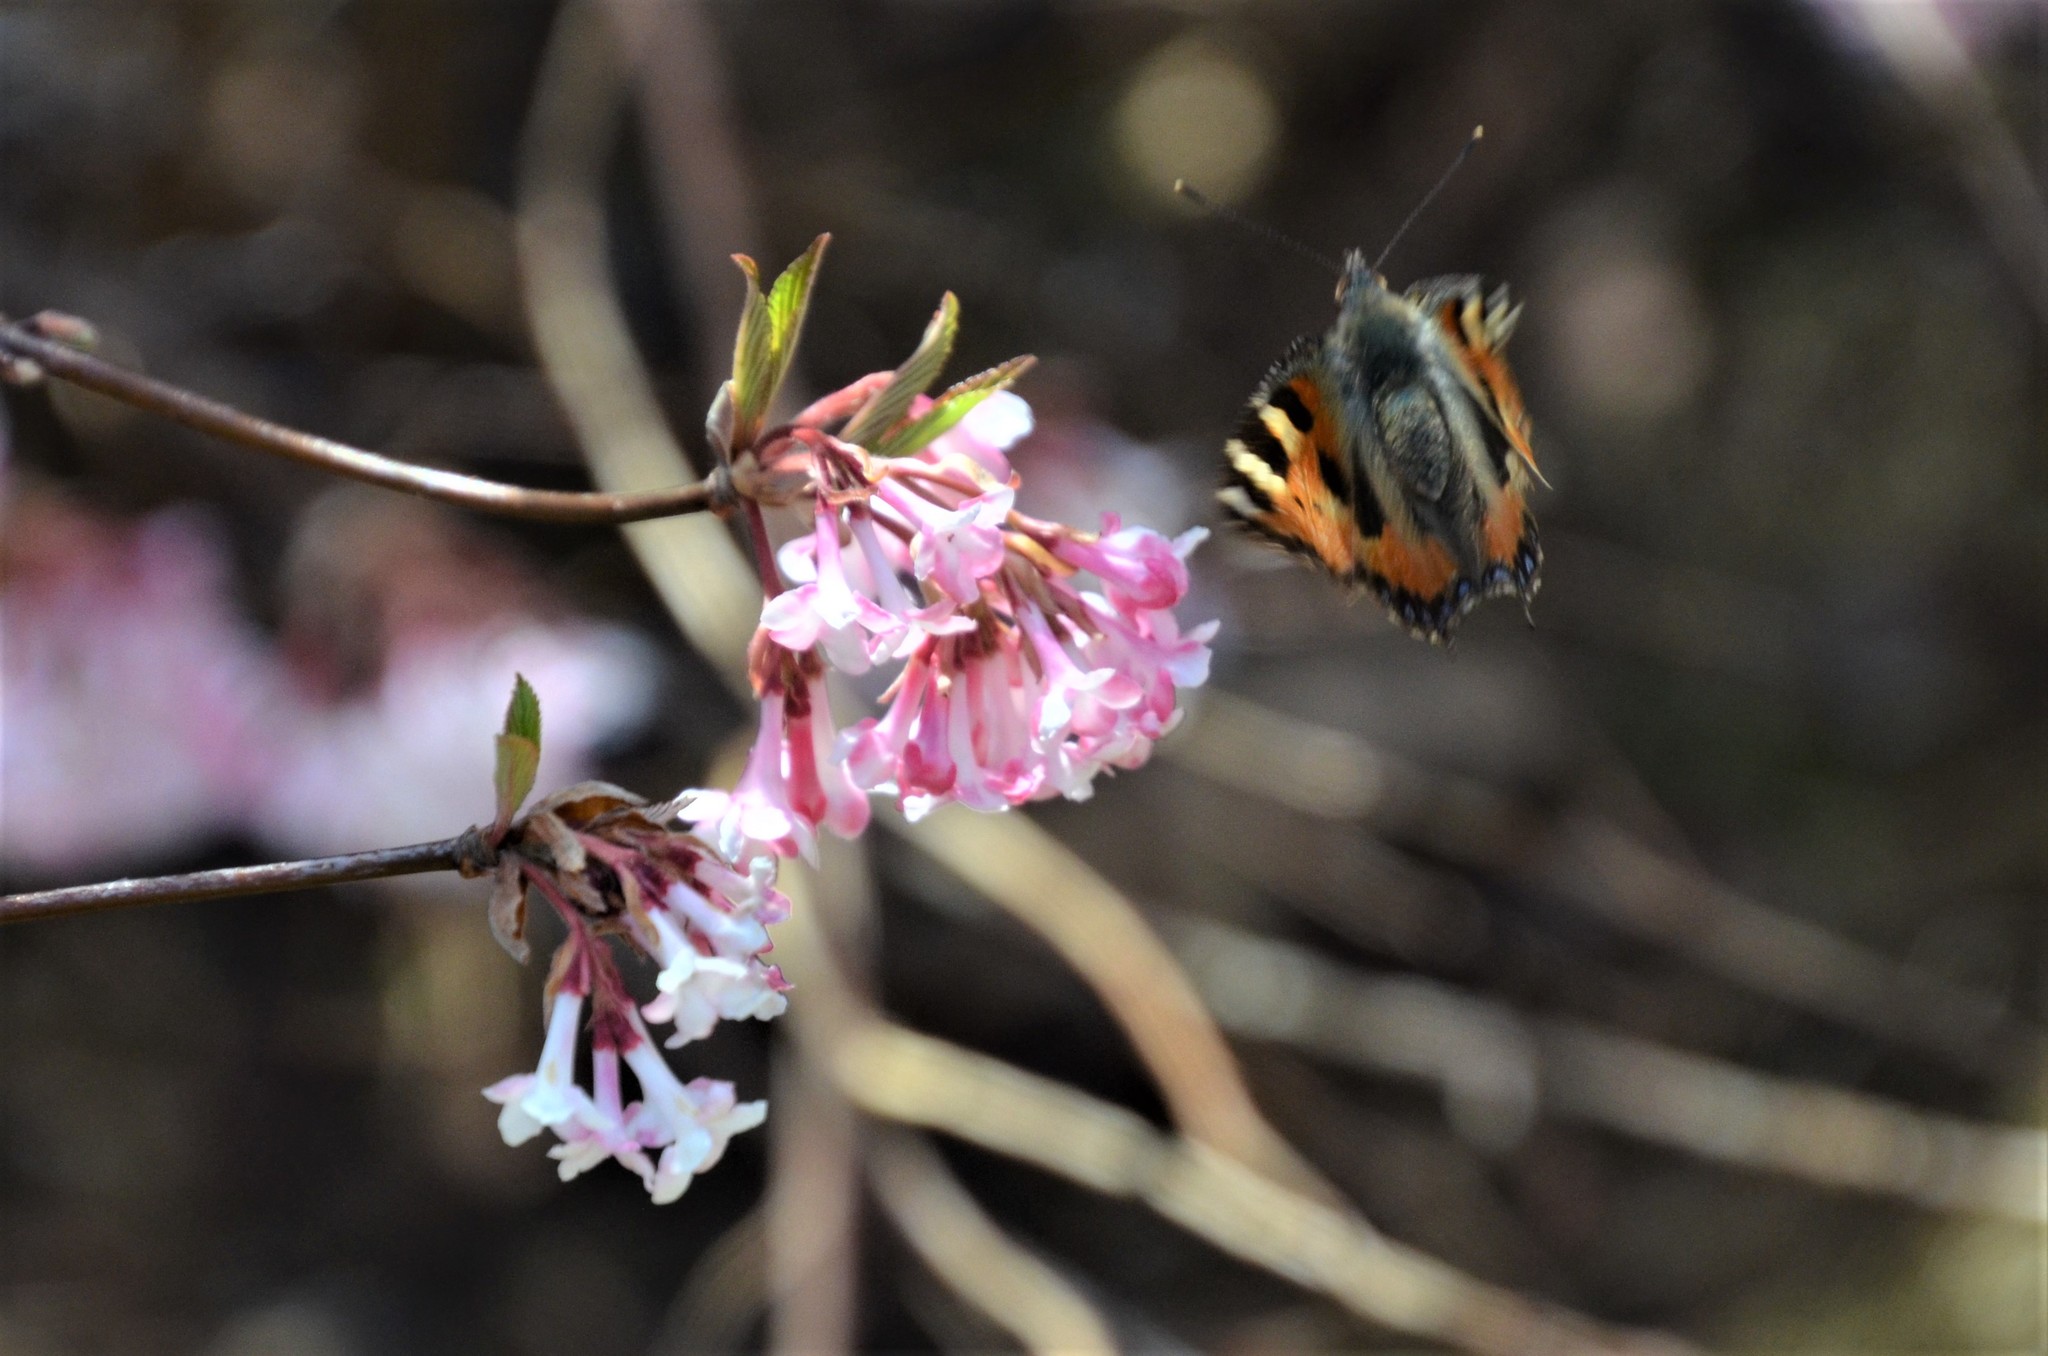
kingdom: Animalia
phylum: Arthropoda
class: Insecta
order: Lepidoptera
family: Nymphalidae
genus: Aglais
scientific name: Aglais urticae
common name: Small tortoiseshell
